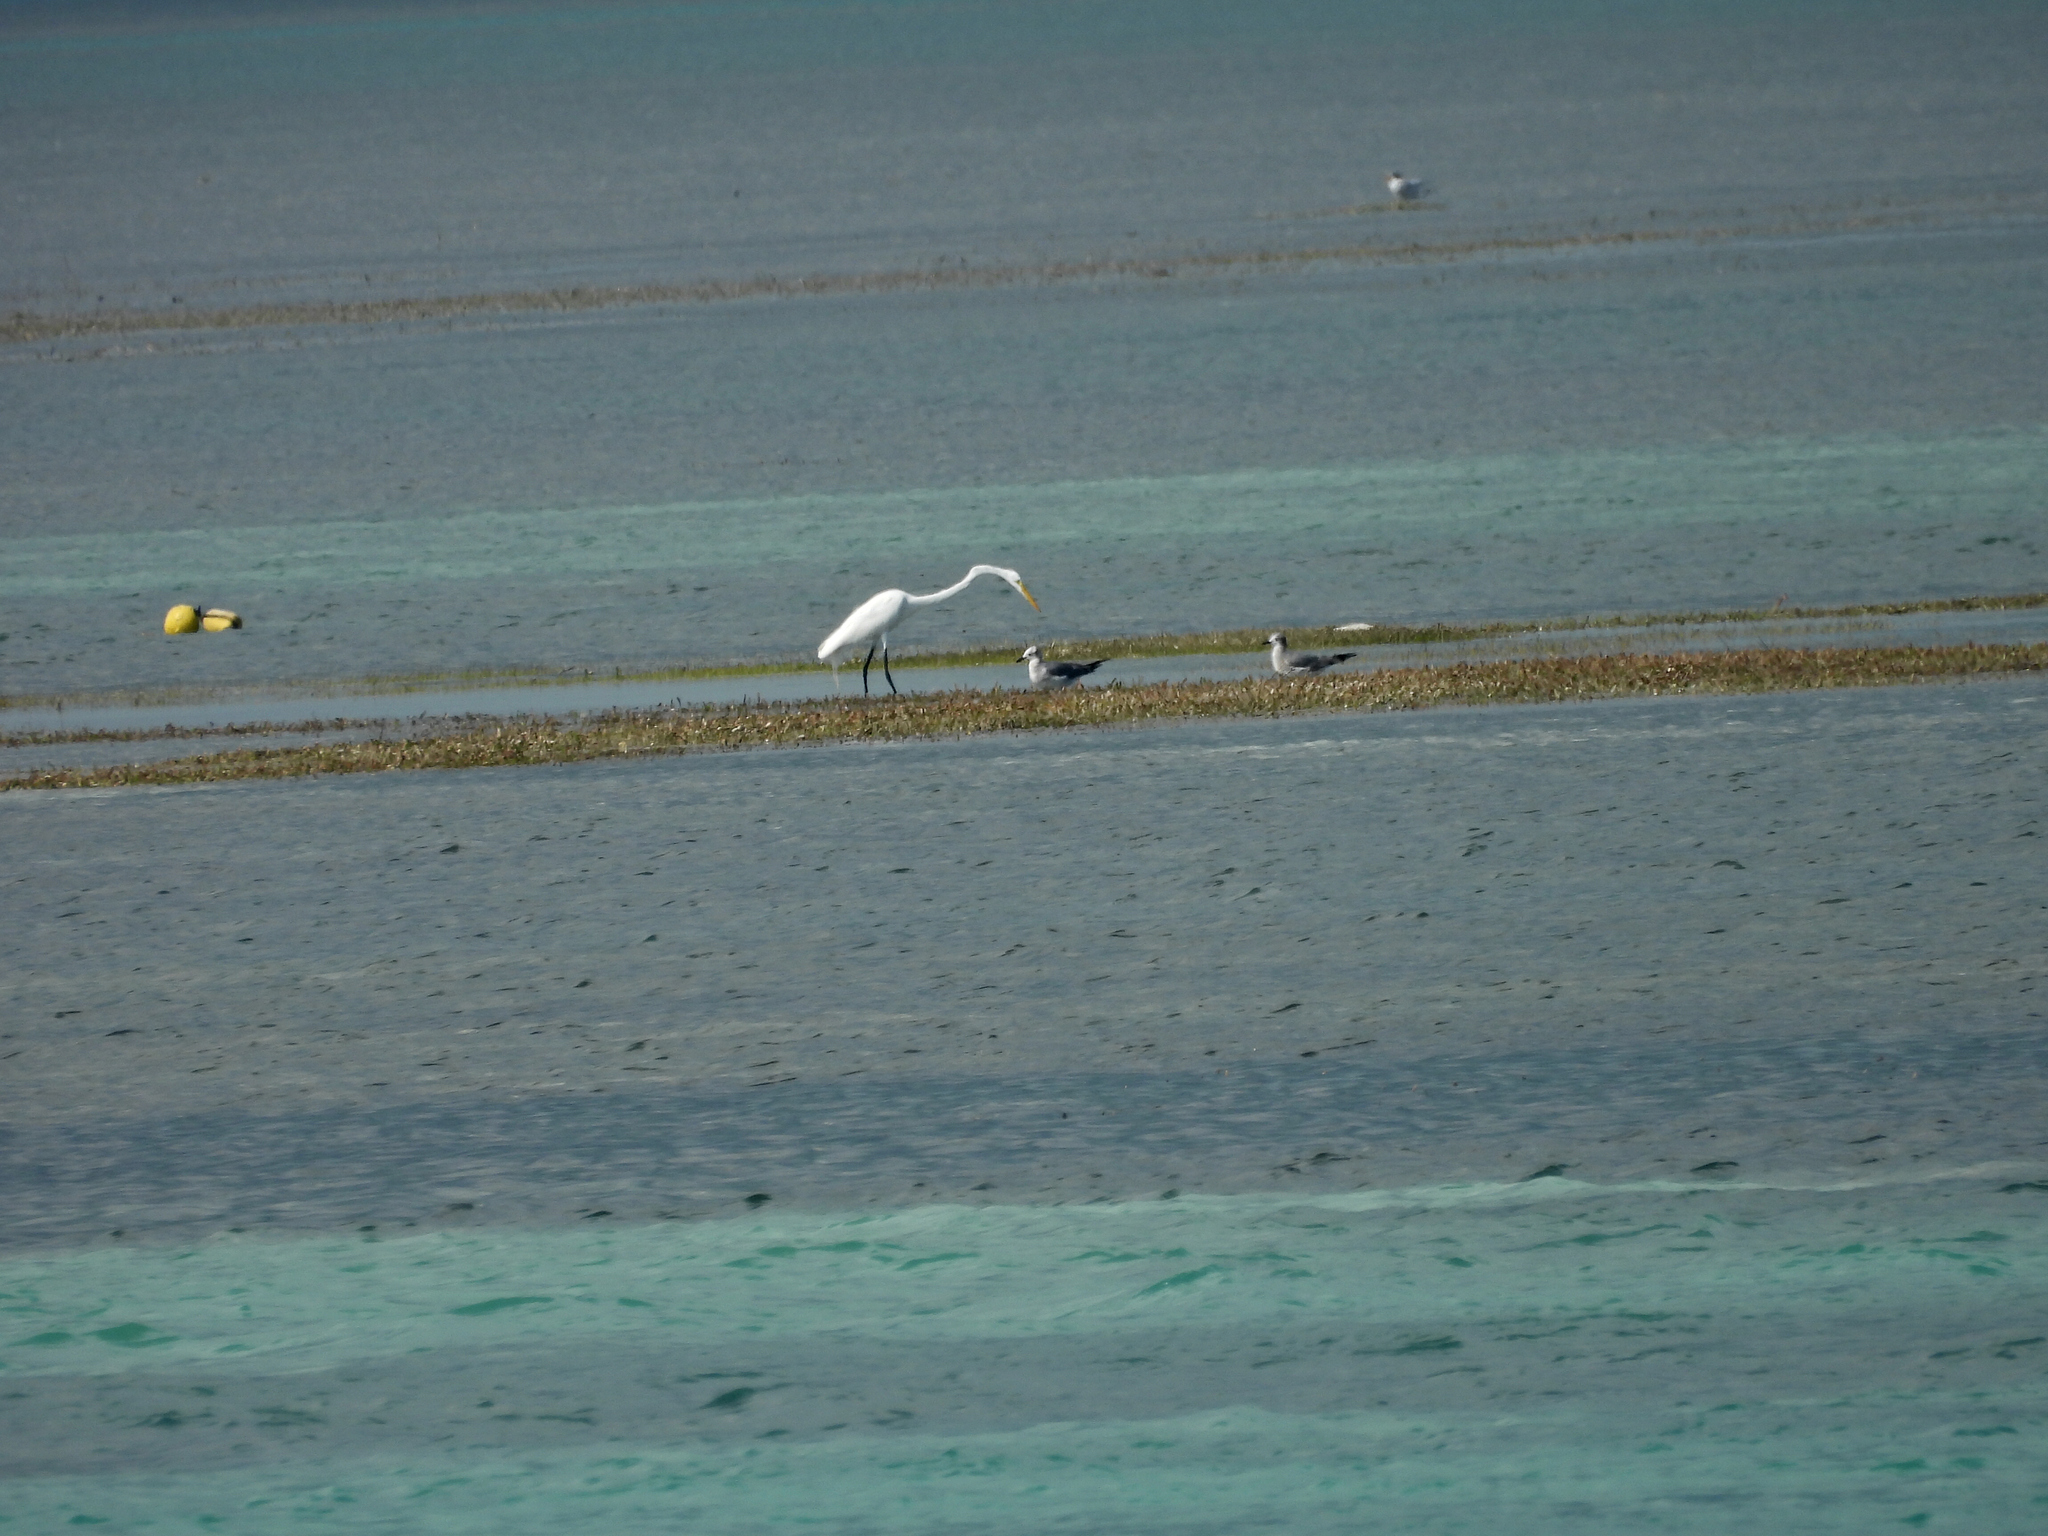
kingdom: Animalia
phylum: Chordata
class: Aves
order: Pelecaniformes
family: Ardeidae
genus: Ardea
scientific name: Ardea alba
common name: Great egret
